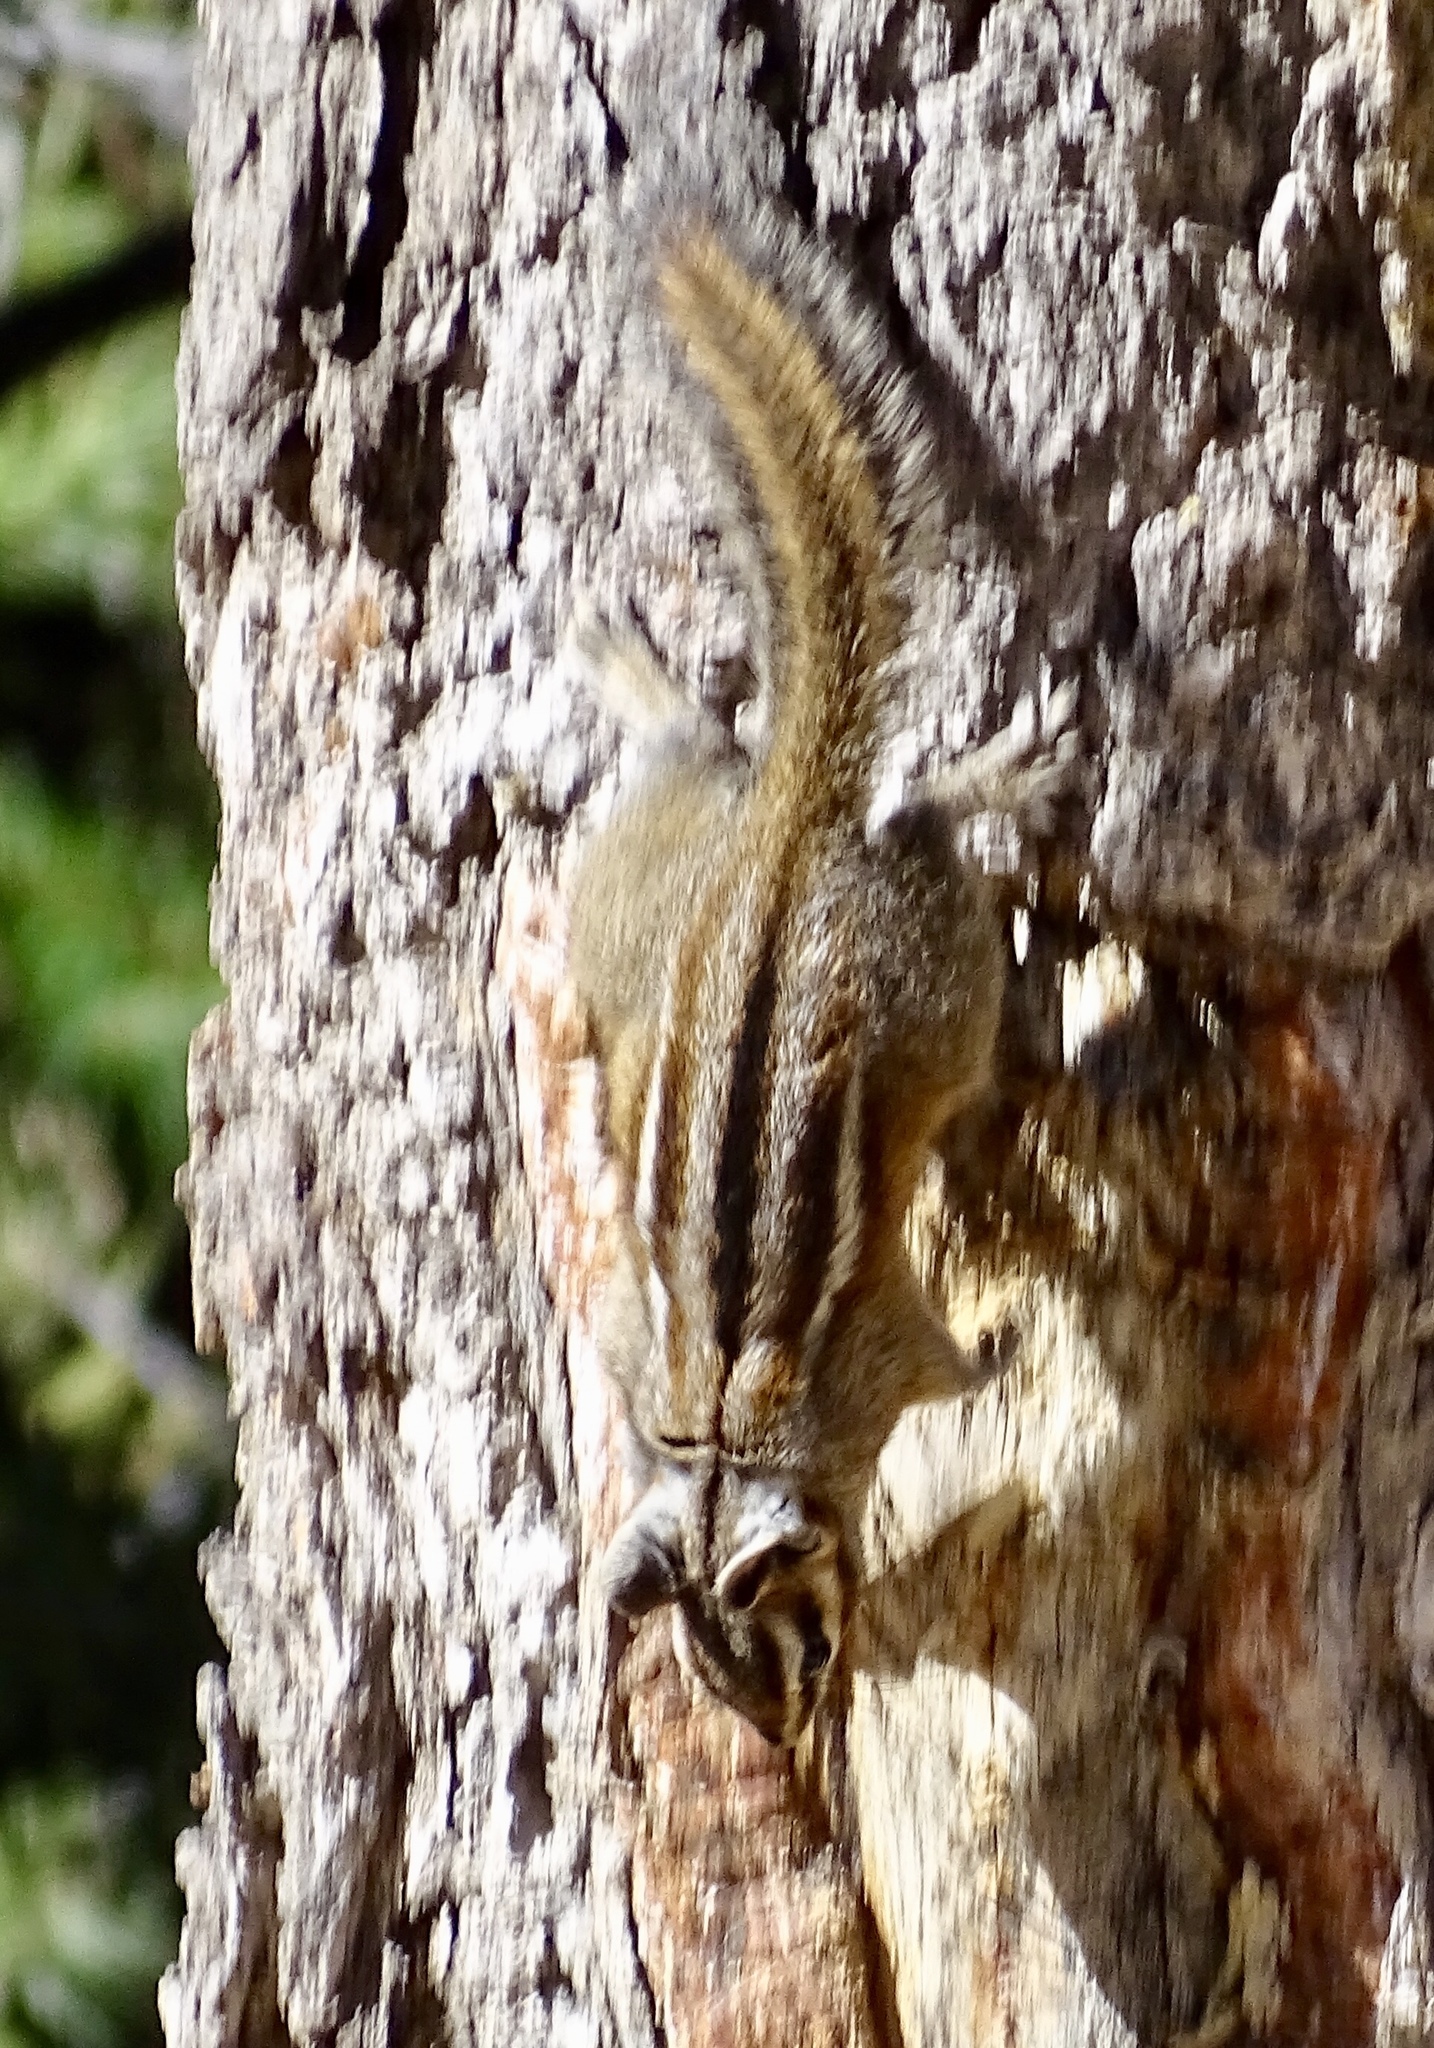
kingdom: Animalia
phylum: Chordata
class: Mammalia
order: Rodentia
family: Sciuridae
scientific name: Sciuridae
